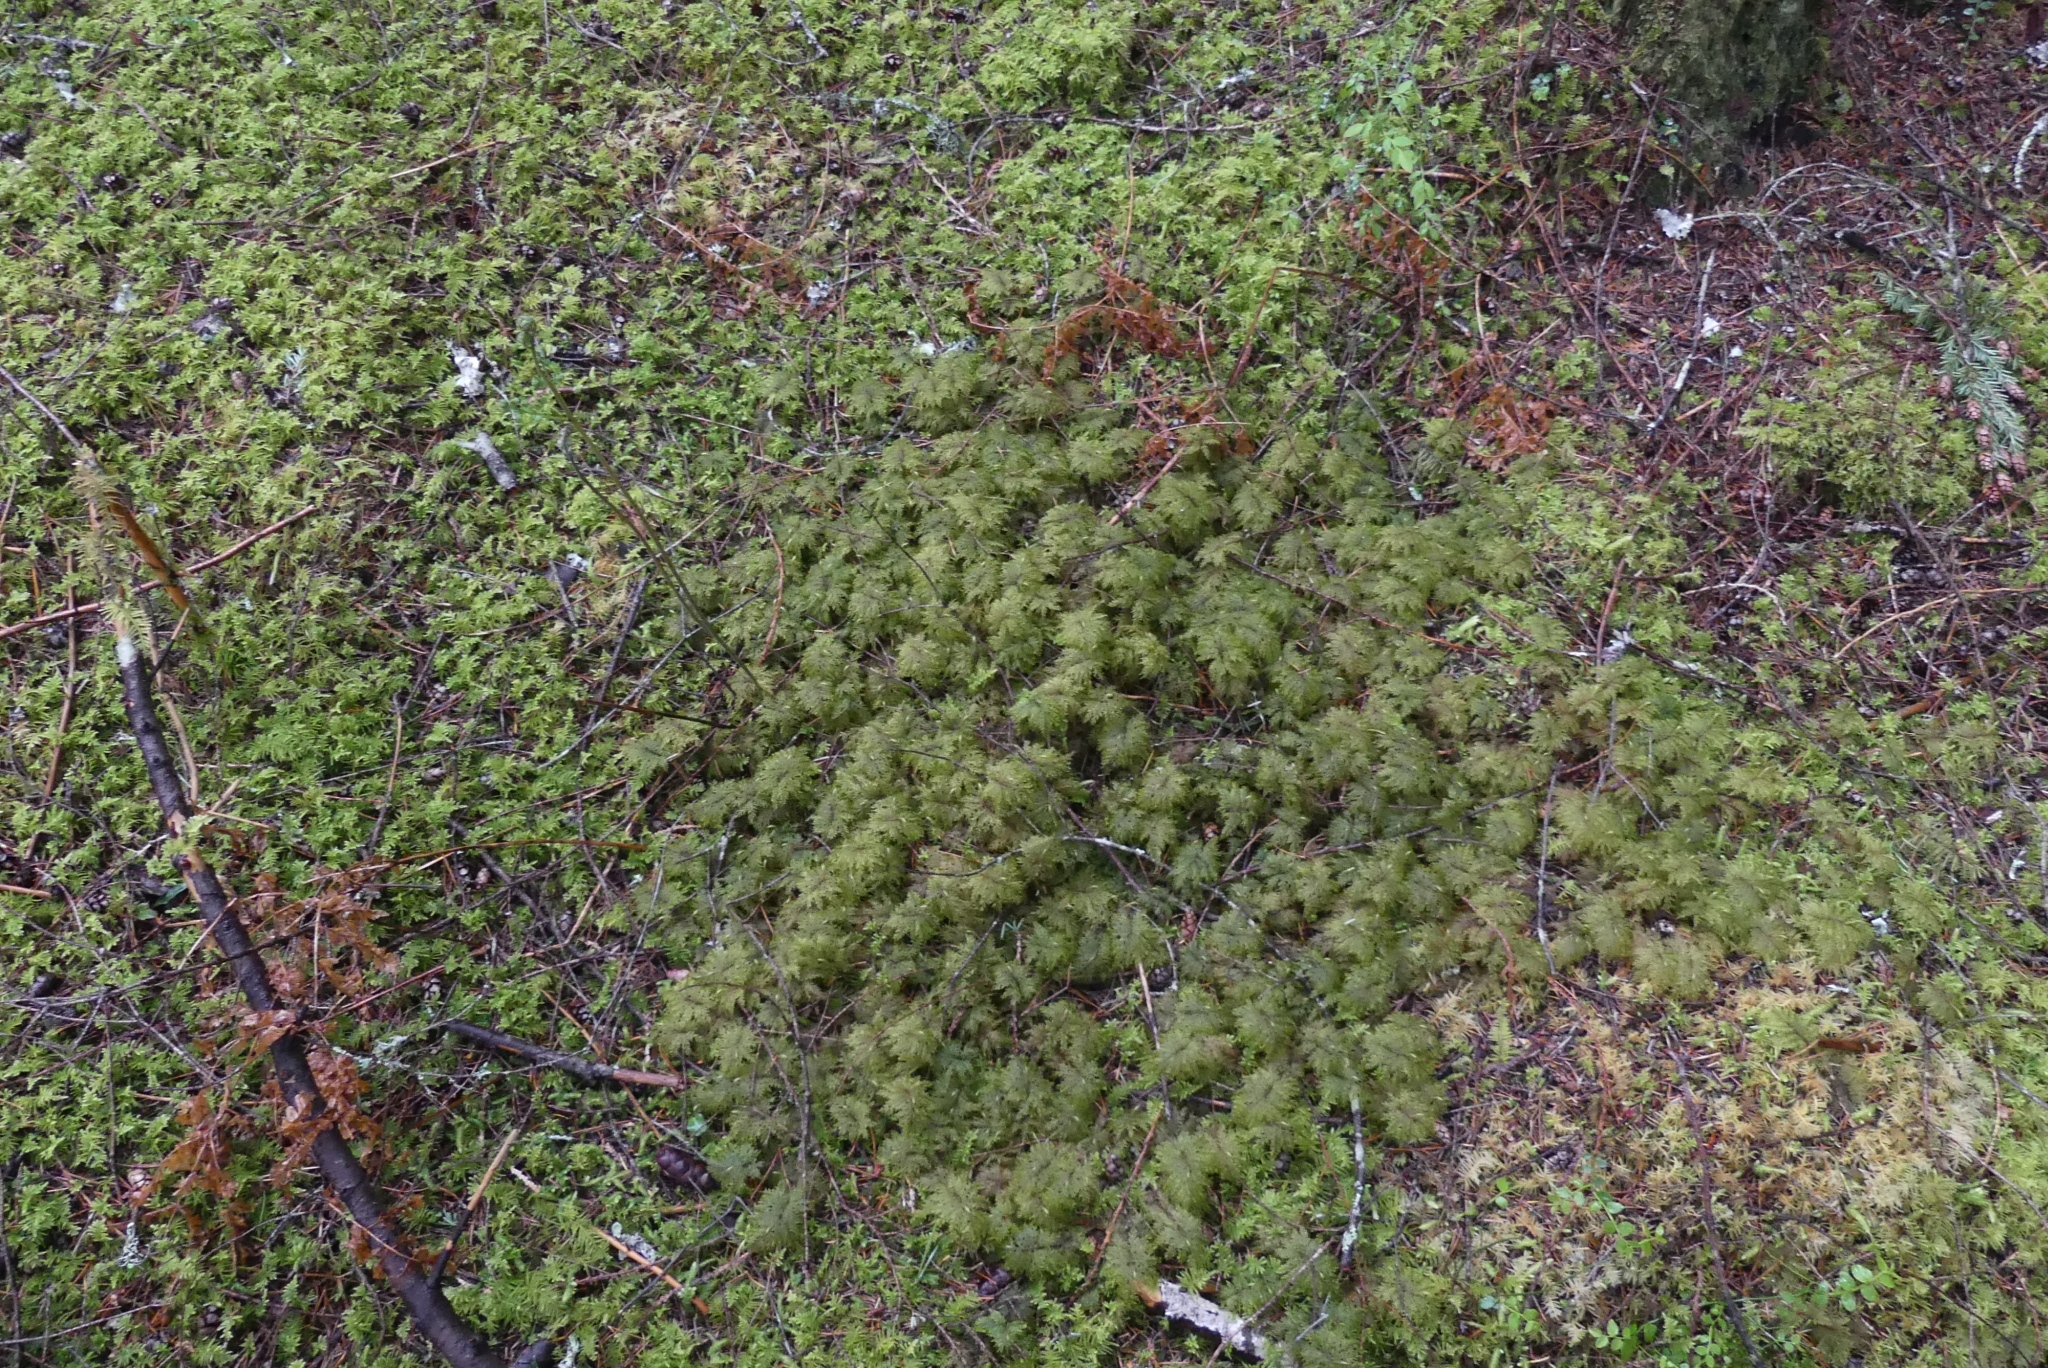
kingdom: Plantae
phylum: Bryophyta
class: Bryopsida
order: Hypnales
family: Hylocomiaceae
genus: Hylocomium
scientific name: Hylocomium splendens
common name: Stairstep moss
